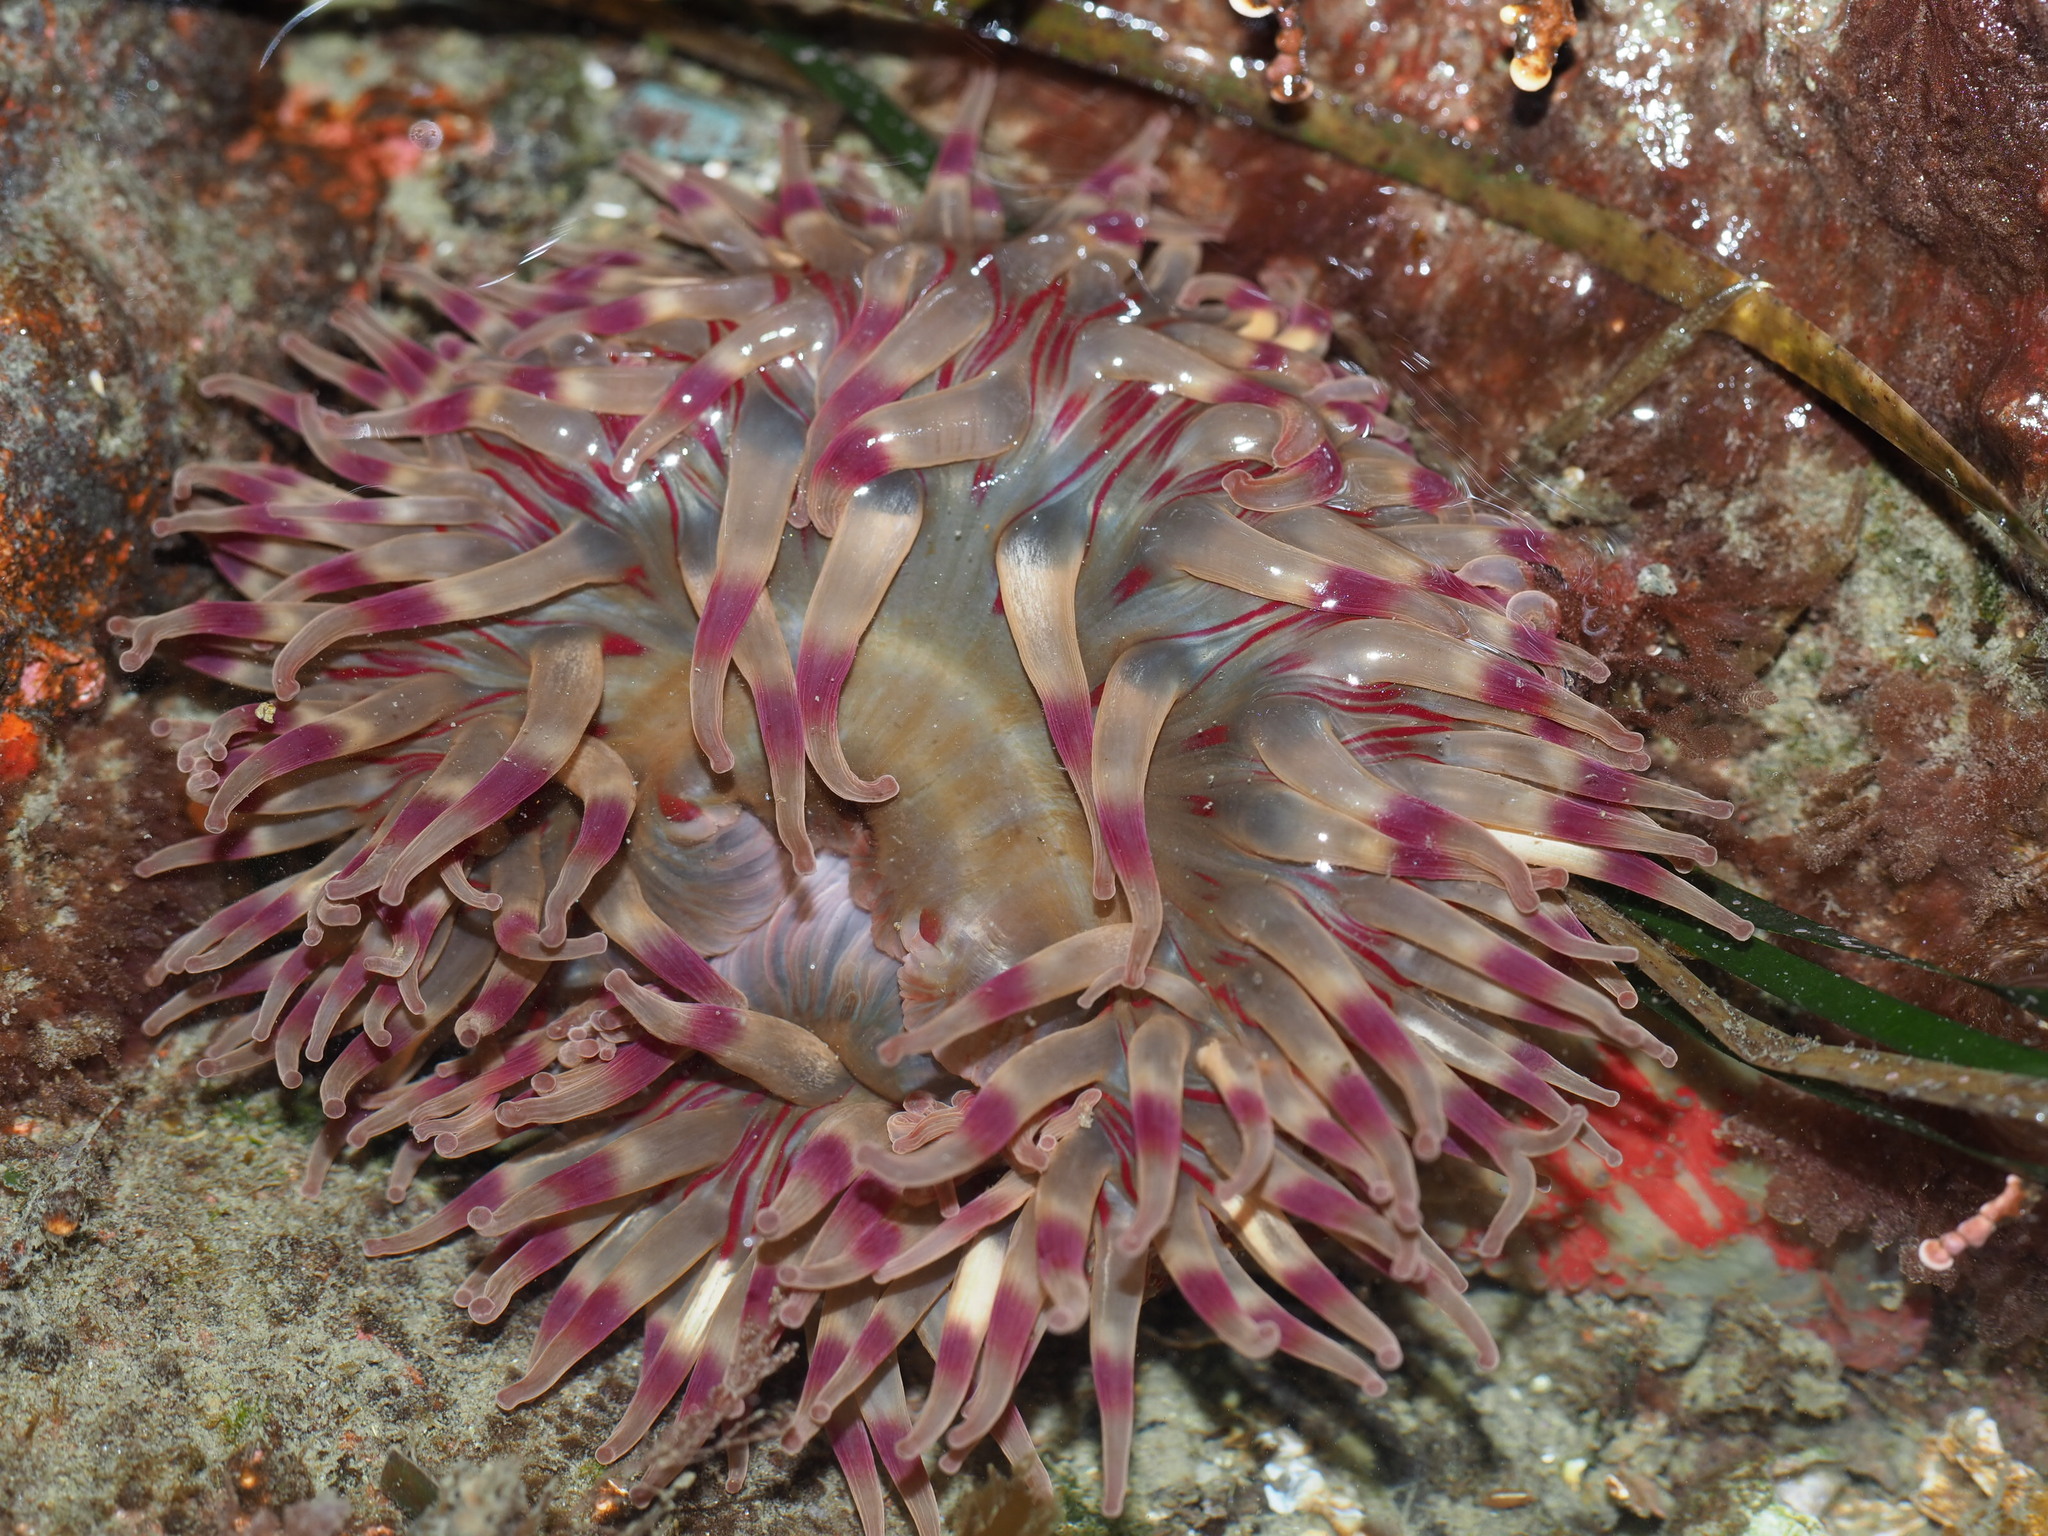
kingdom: Animalia
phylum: Cnidaria
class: Anthozoa
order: Actiniaria
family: Actiniidae
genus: Urticina
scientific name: Urticina grebelnyi
